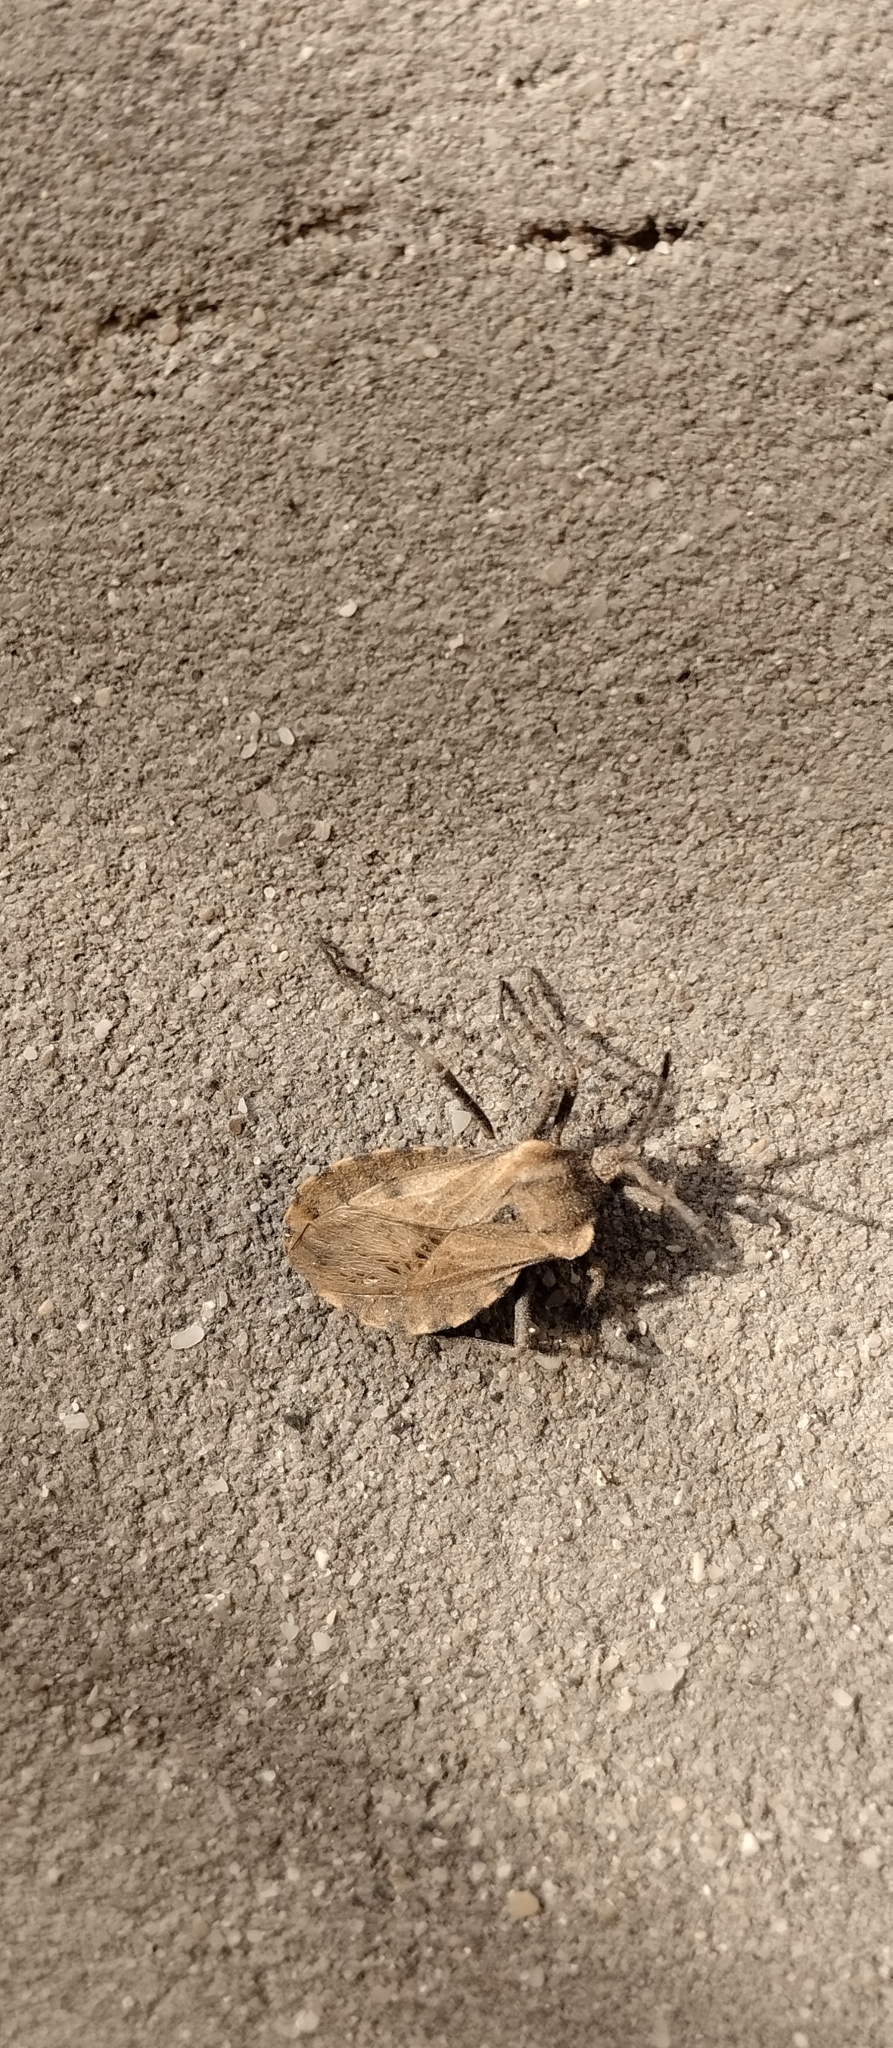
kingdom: Animalia
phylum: Arthropoda
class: Insecta
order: Hemiptera
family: Coreidae
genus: Spartocera
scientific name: Spartocera fusca
